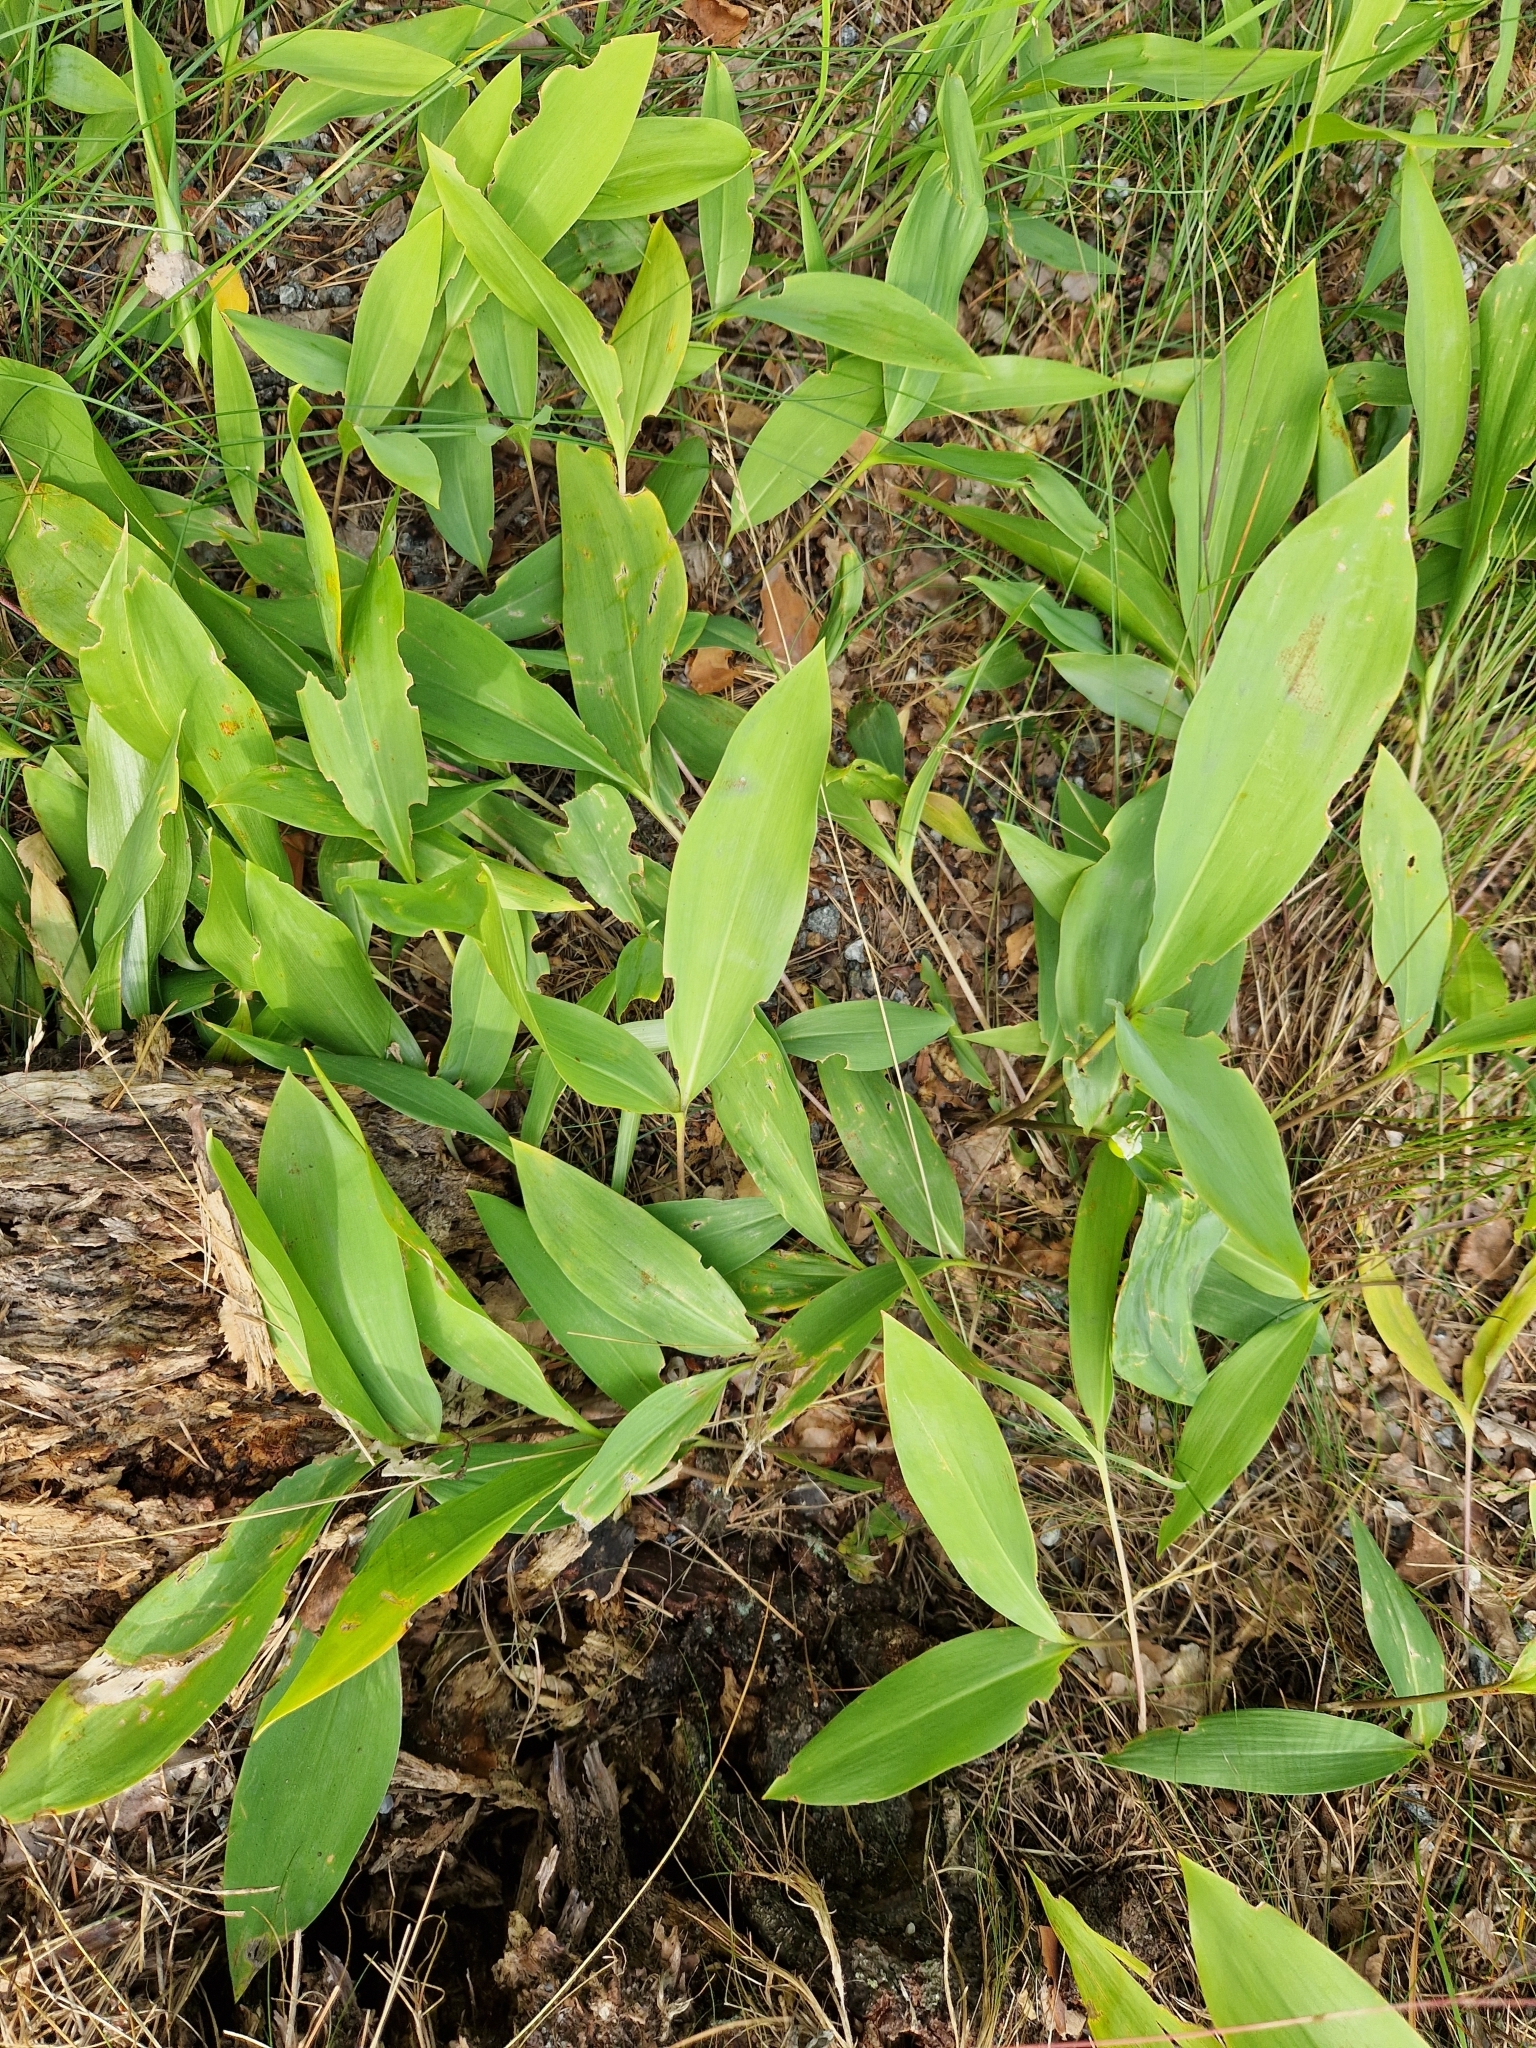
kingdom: Plantae
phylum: Tracheophyta
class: Liliopsida
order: Asparagales
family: Asparagaceae
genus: Convallaria
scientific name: Convallaria majalis
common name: Lily-of-the-valley
